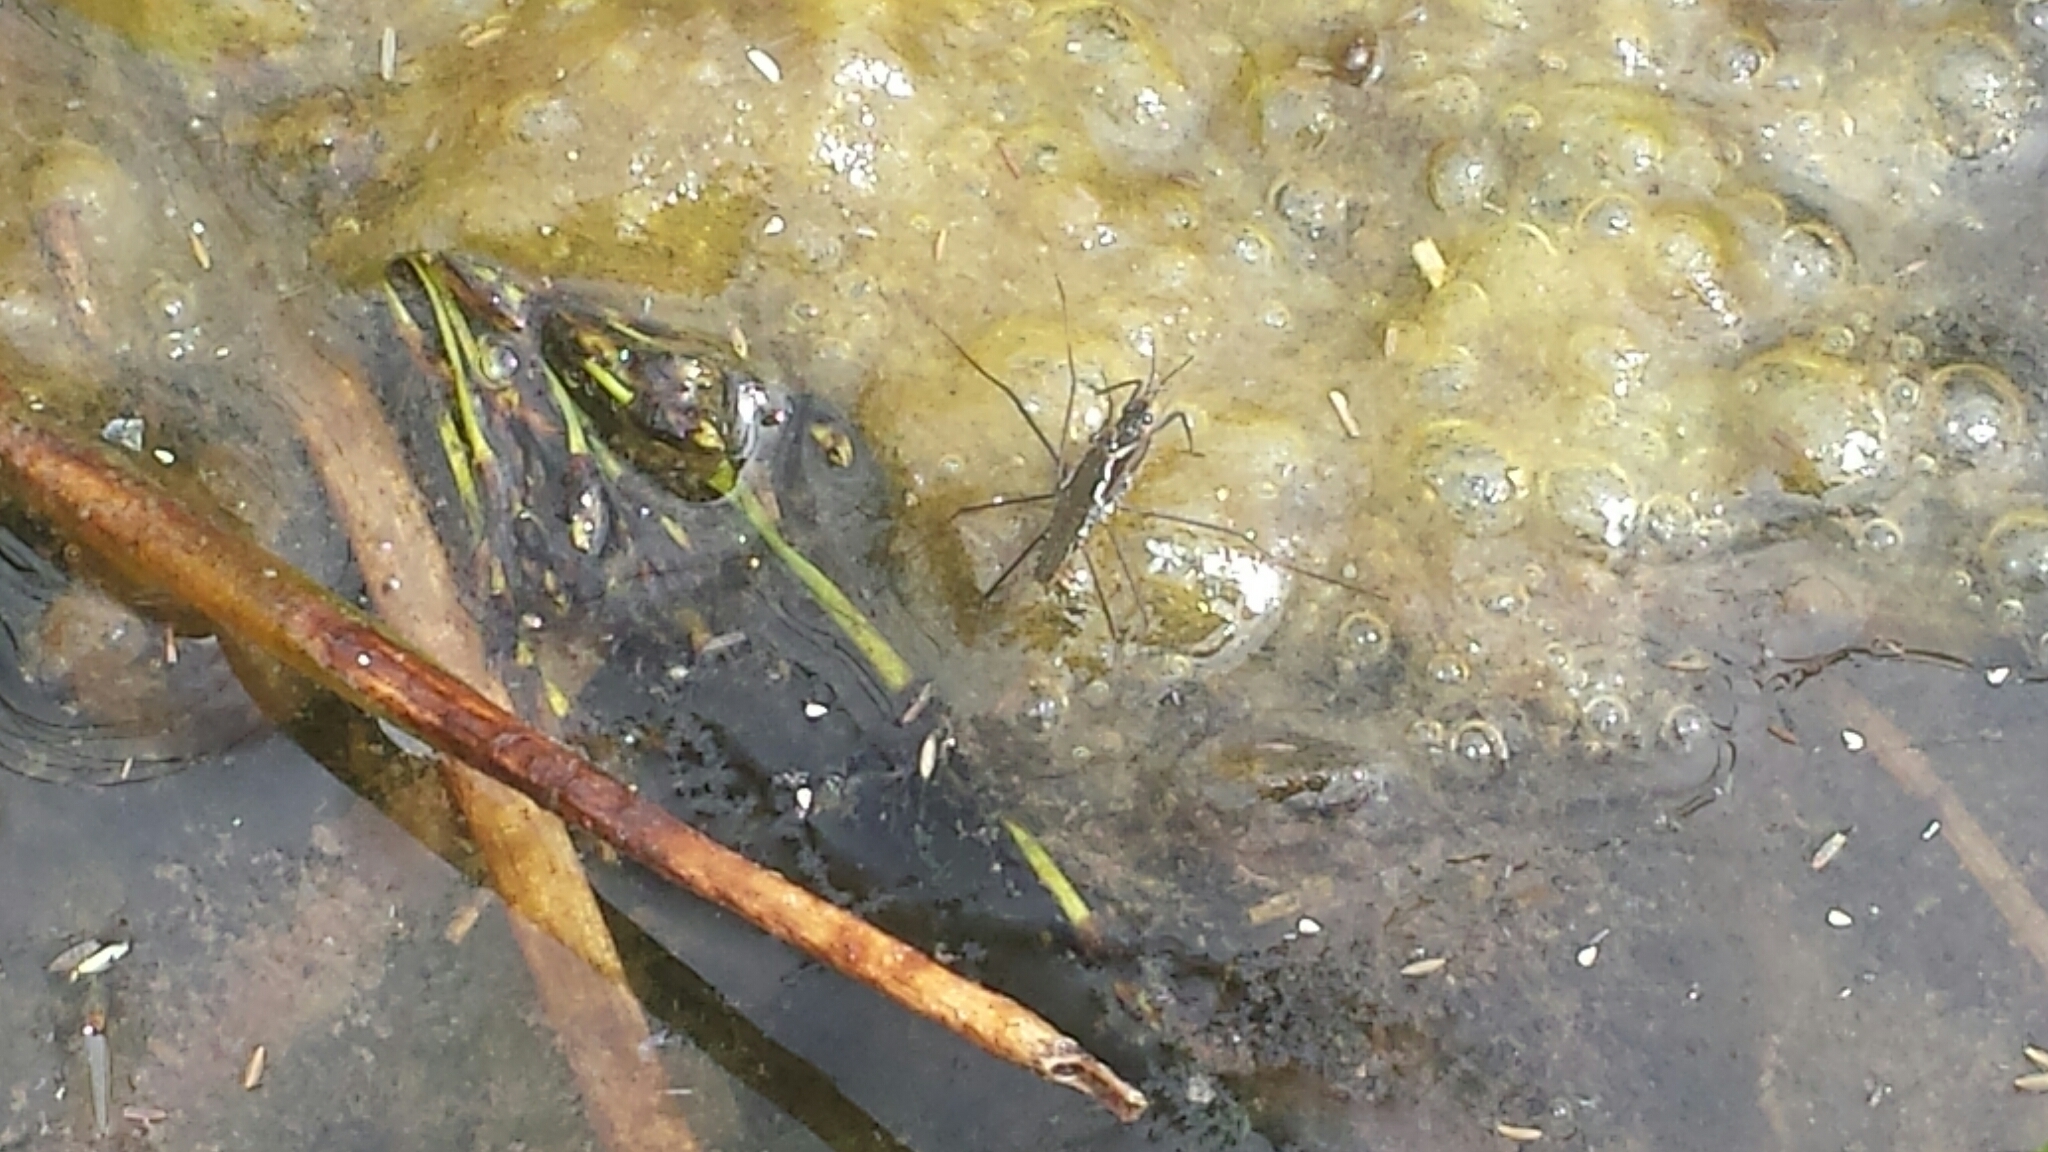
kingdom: Animalia
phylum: Arthropoda
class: Insecta
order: Hemiptera
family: Gerridae
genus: Aquarius
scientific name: Aquarius remigis
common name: Common water strider
